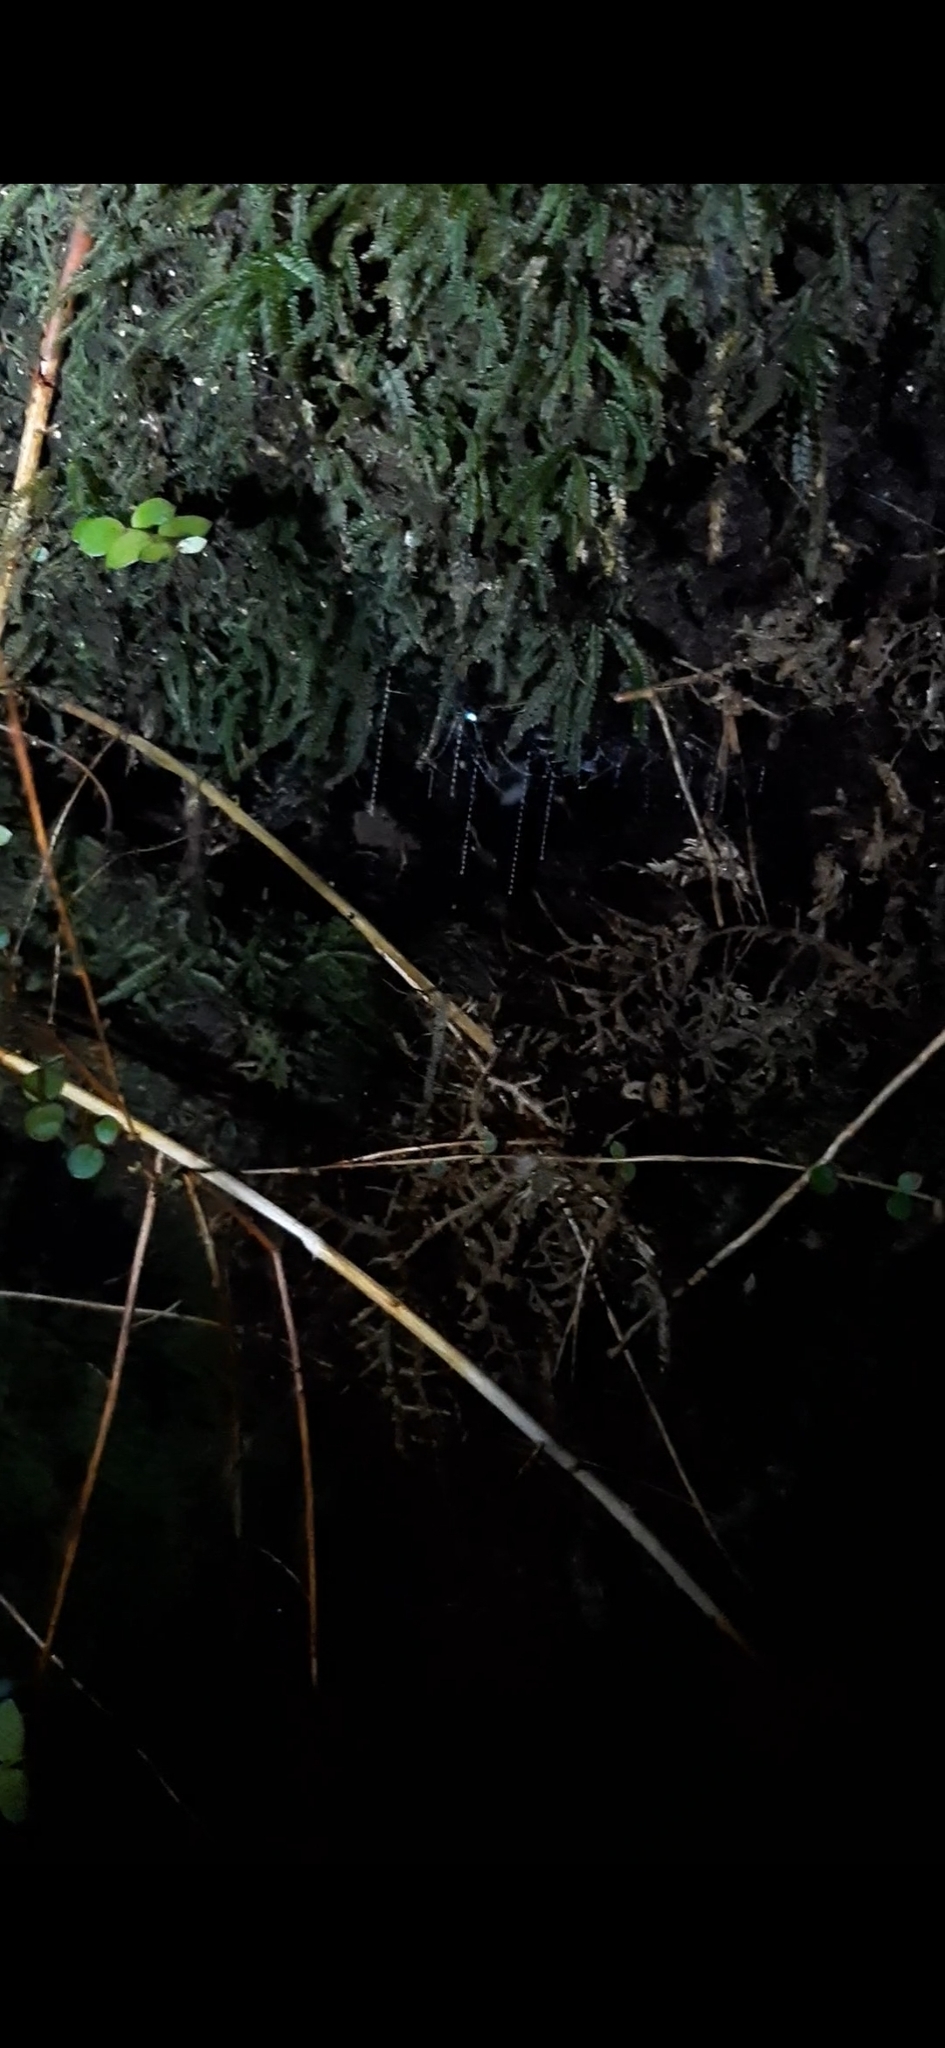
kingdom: Animalia
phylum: Arthropoda
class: Insecta
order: Diptera
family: Keroplatidae
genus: Arachnocampa
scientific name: Arachnocampa luminosa
